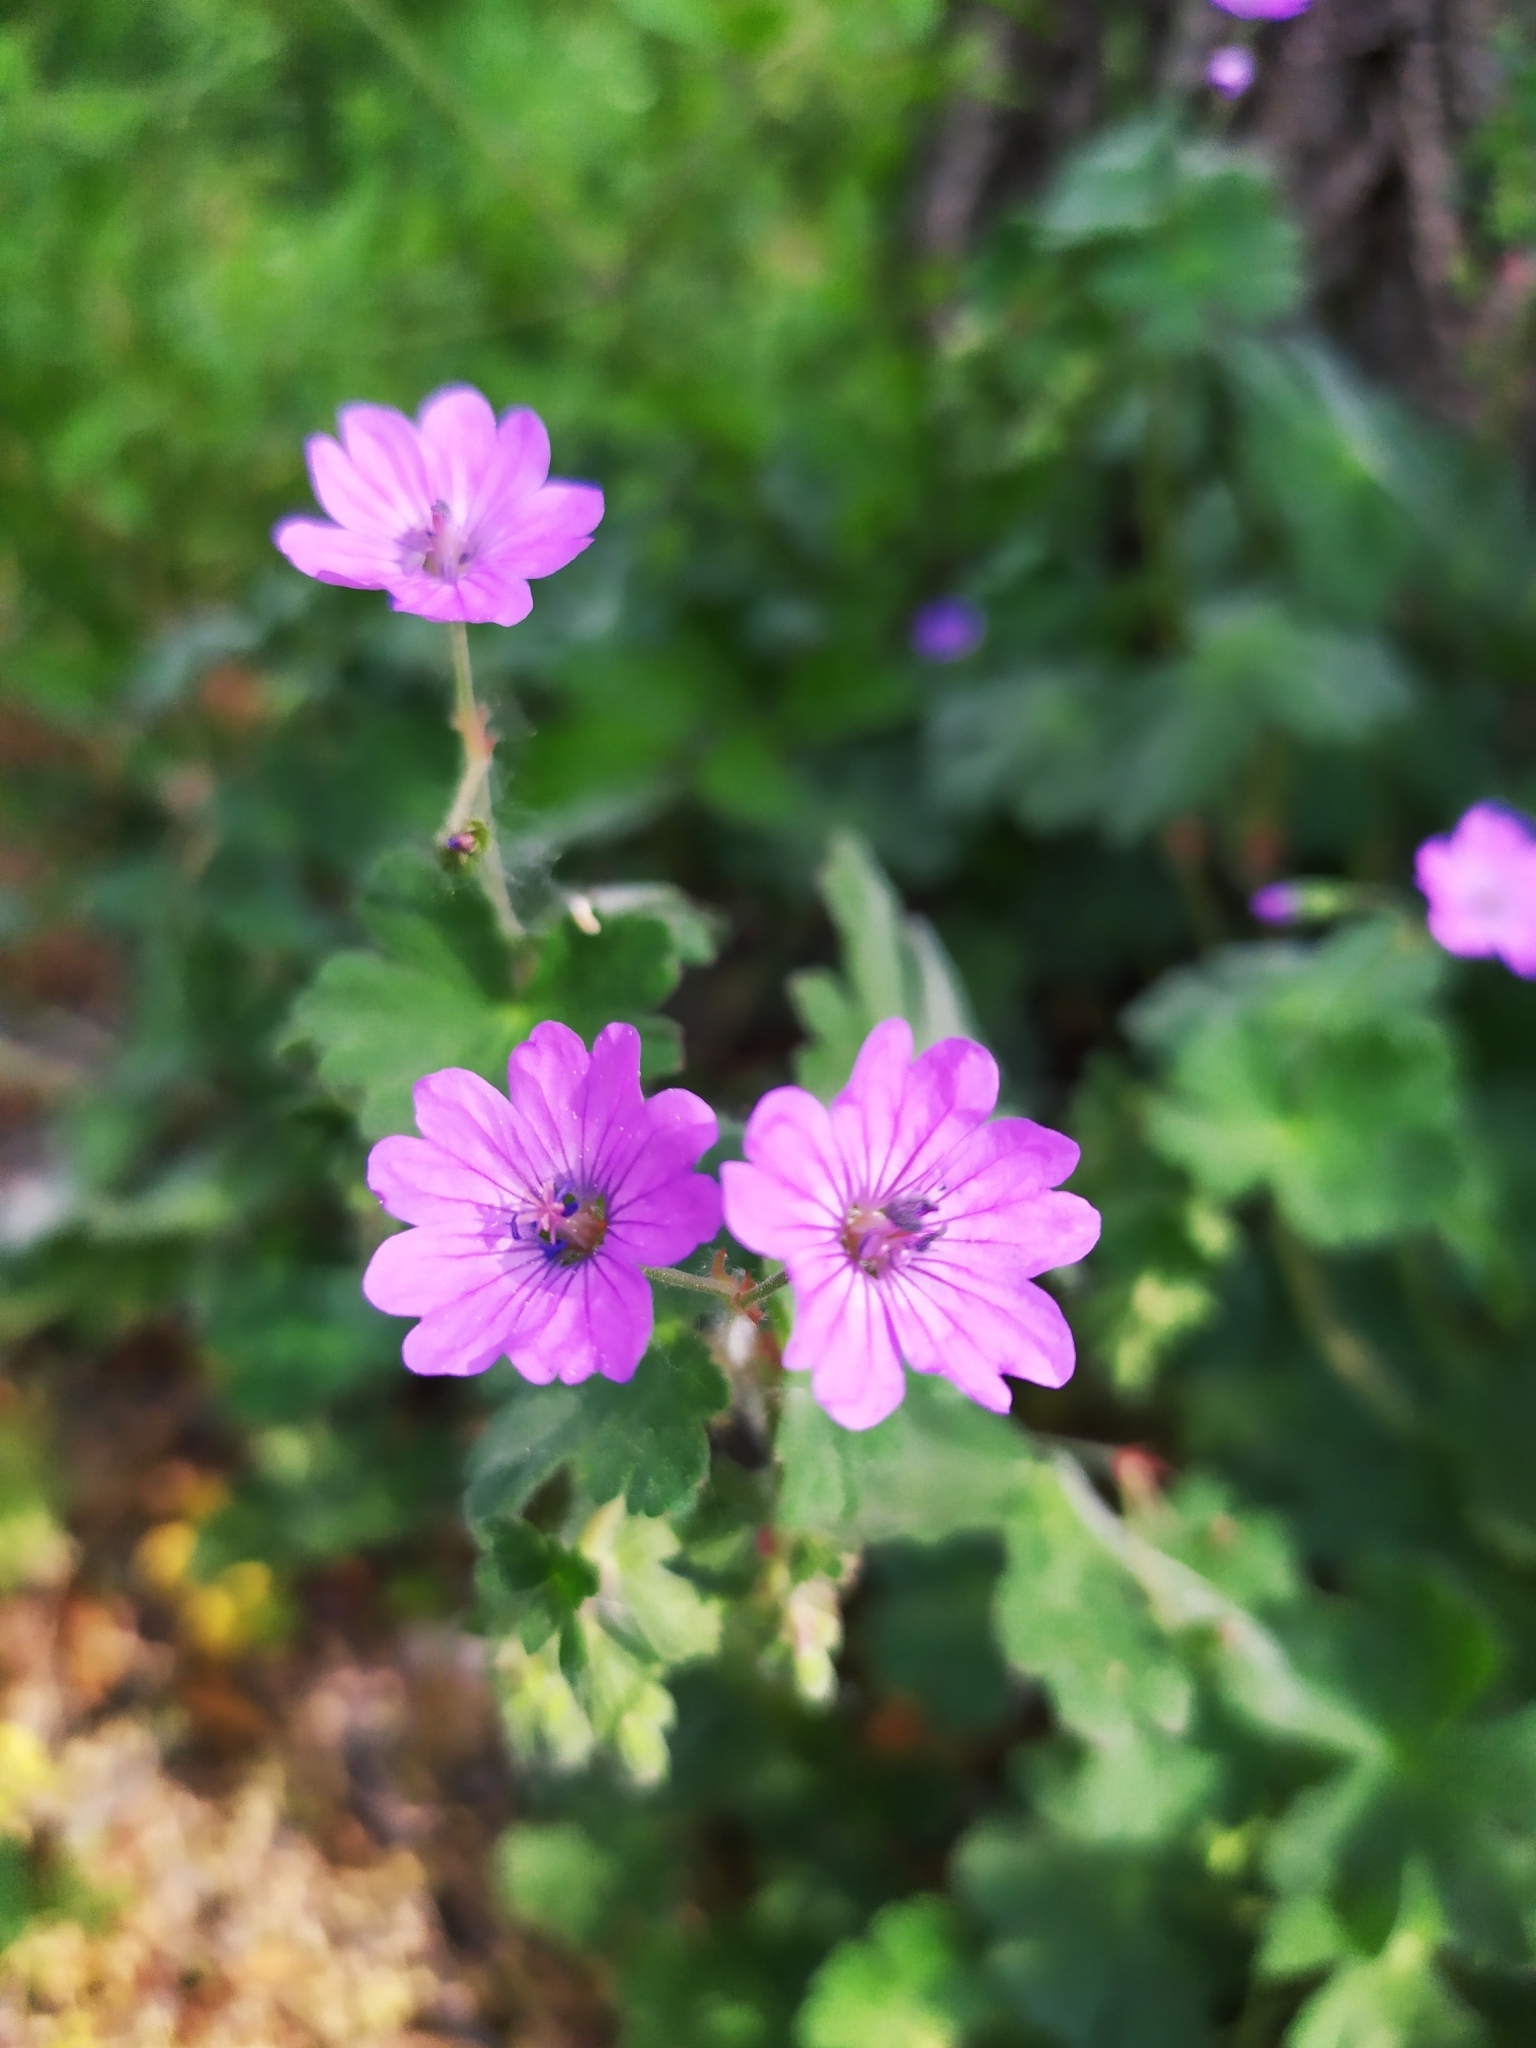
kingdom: Plantae
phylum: Tracheophyta
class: Magnoliopsida
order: Geraniales
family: Geraniaceae
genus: Geranium
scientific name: Geranium pyrenaicum
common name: Hedgerow crane's-bill
